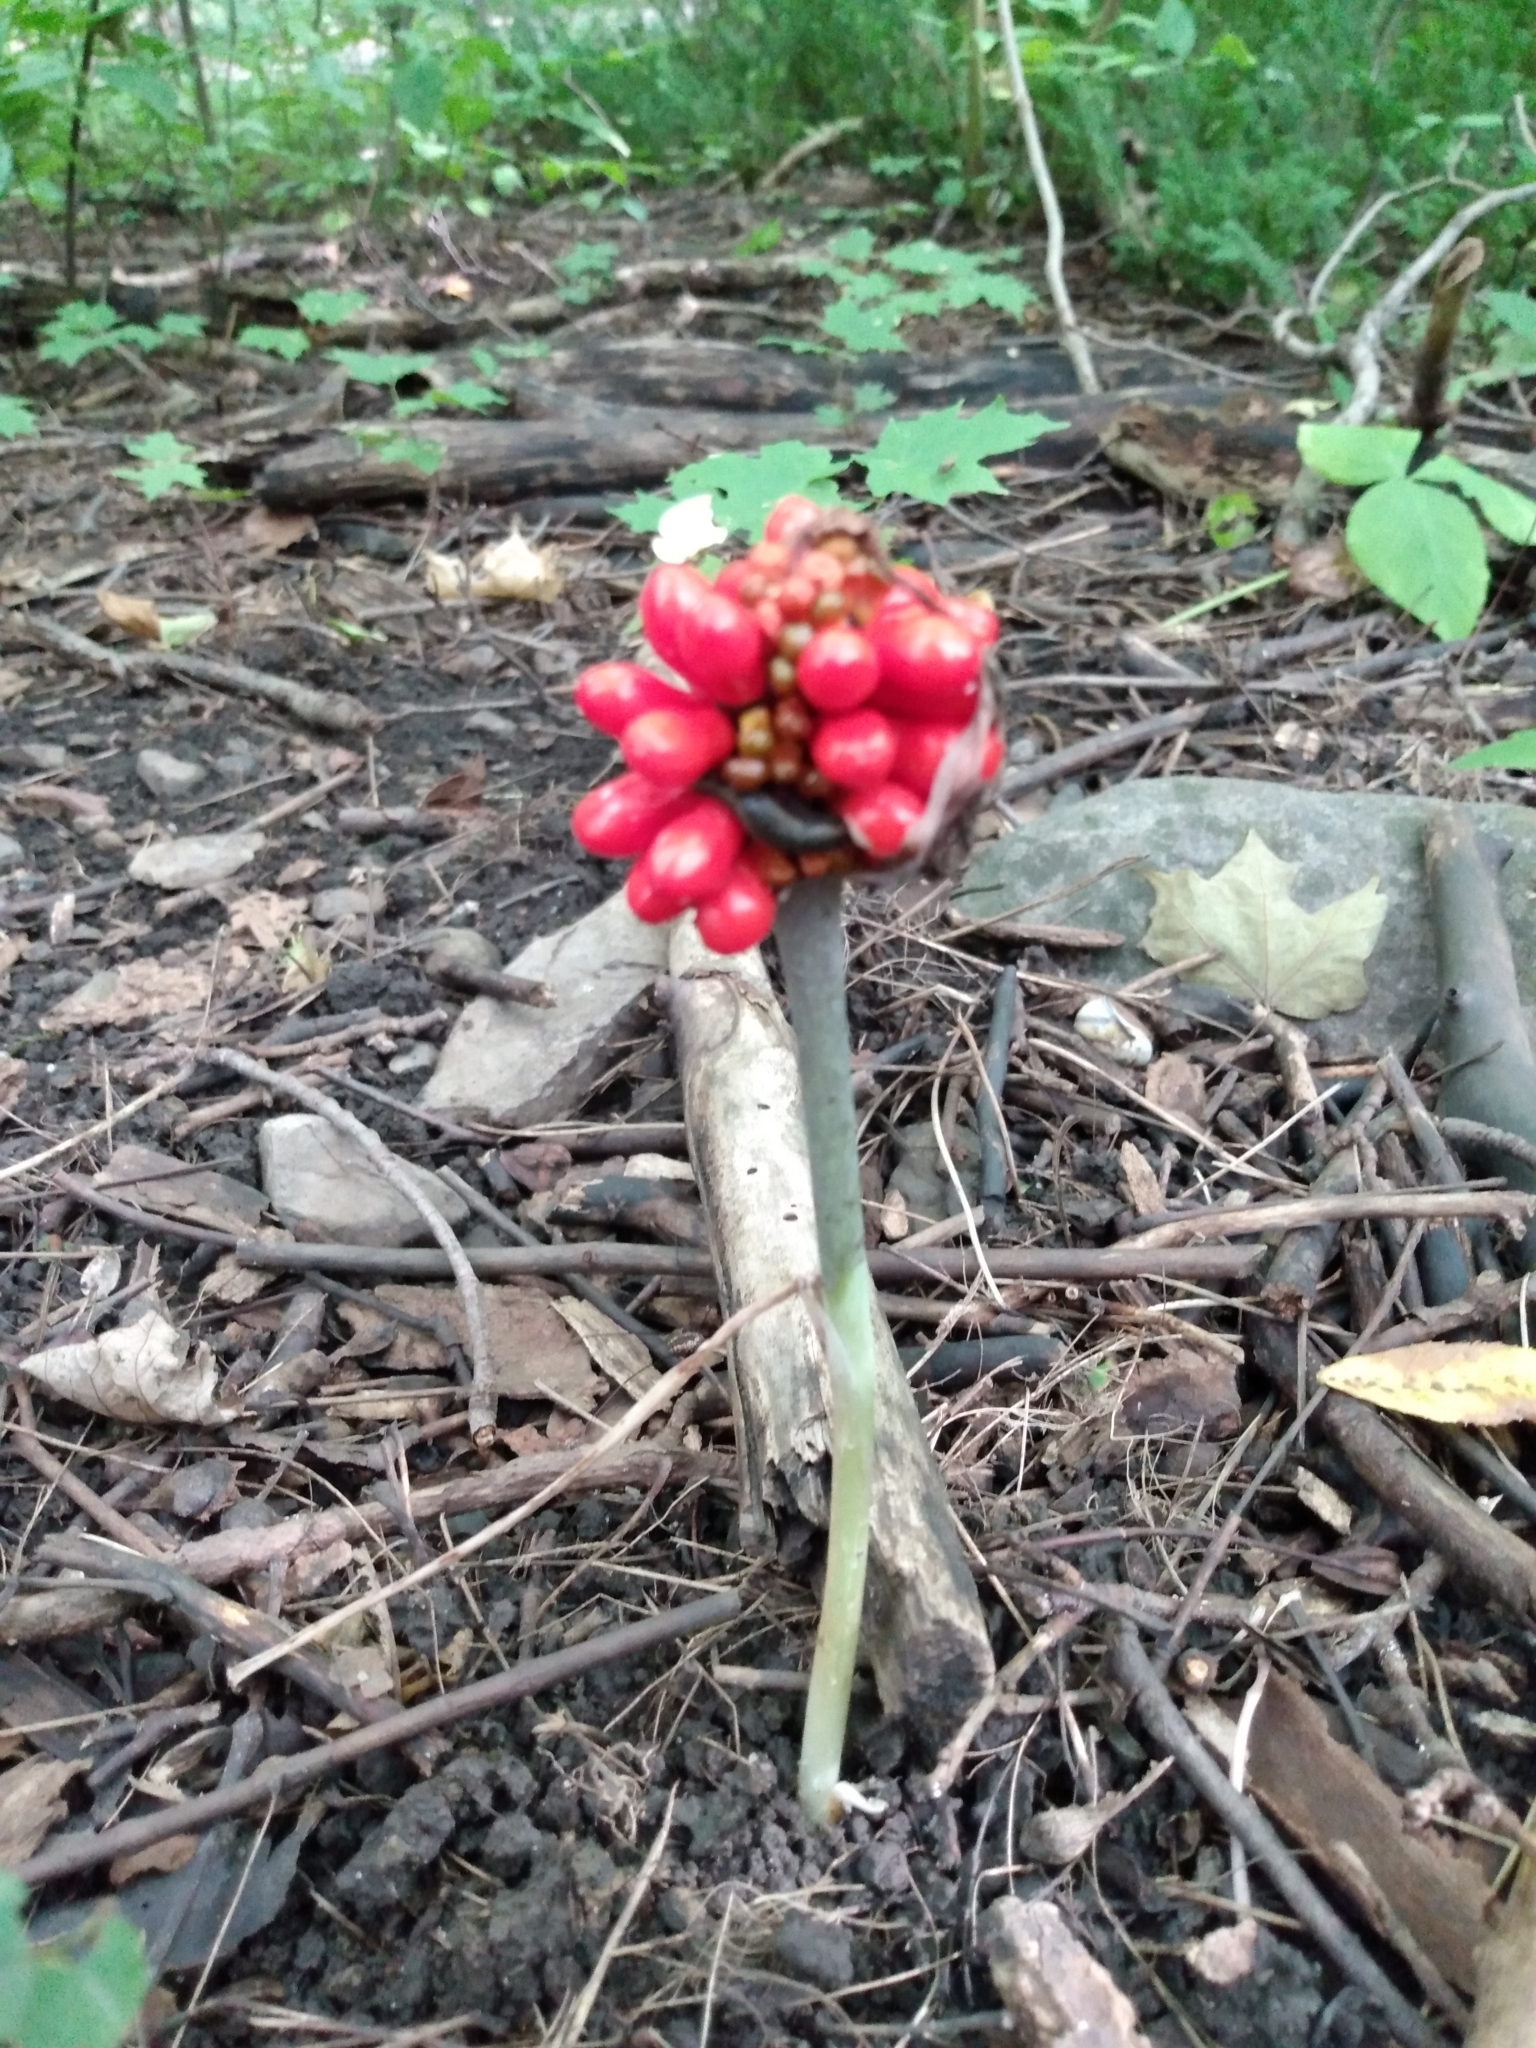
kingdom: Plantae
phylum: Tracheophyta
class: Liliopsida
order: Alismatales
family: Araceae
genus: Arisaema
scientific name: Arisaema triphyllum
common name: Jack-in-the-pulpit
